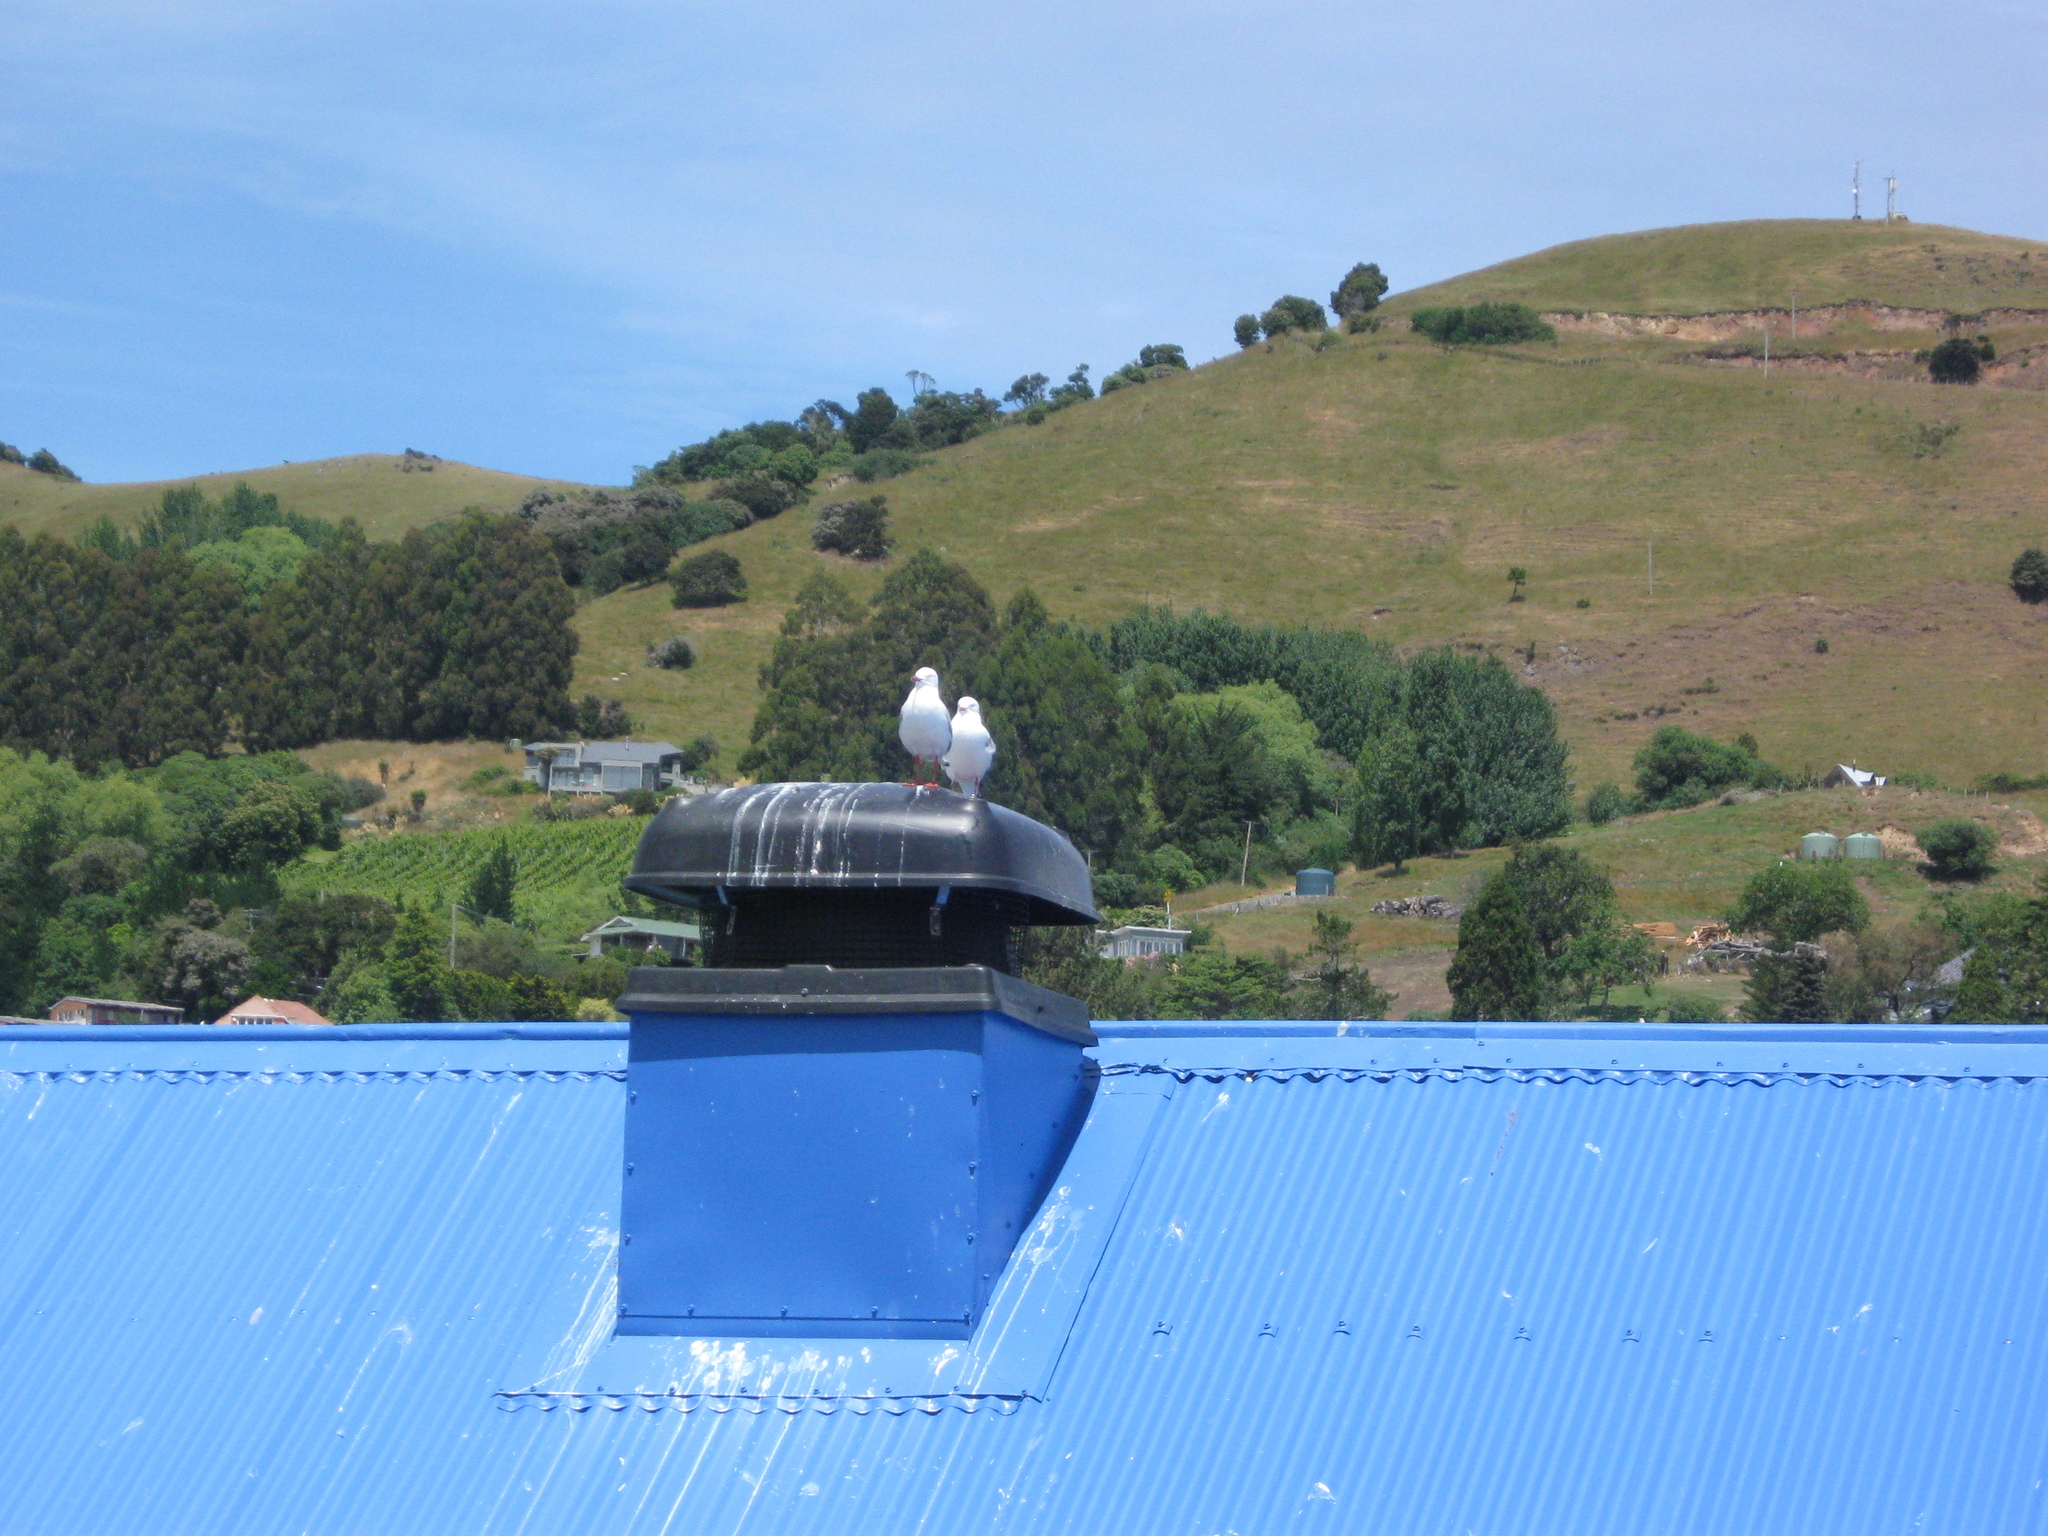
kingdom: Animalia
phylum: Chordata
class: Aves
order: Charadriiformes
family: Laridae
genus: Chroicocephalus
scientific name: Chroicocephalus novaehollandiae
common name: Silver gull
